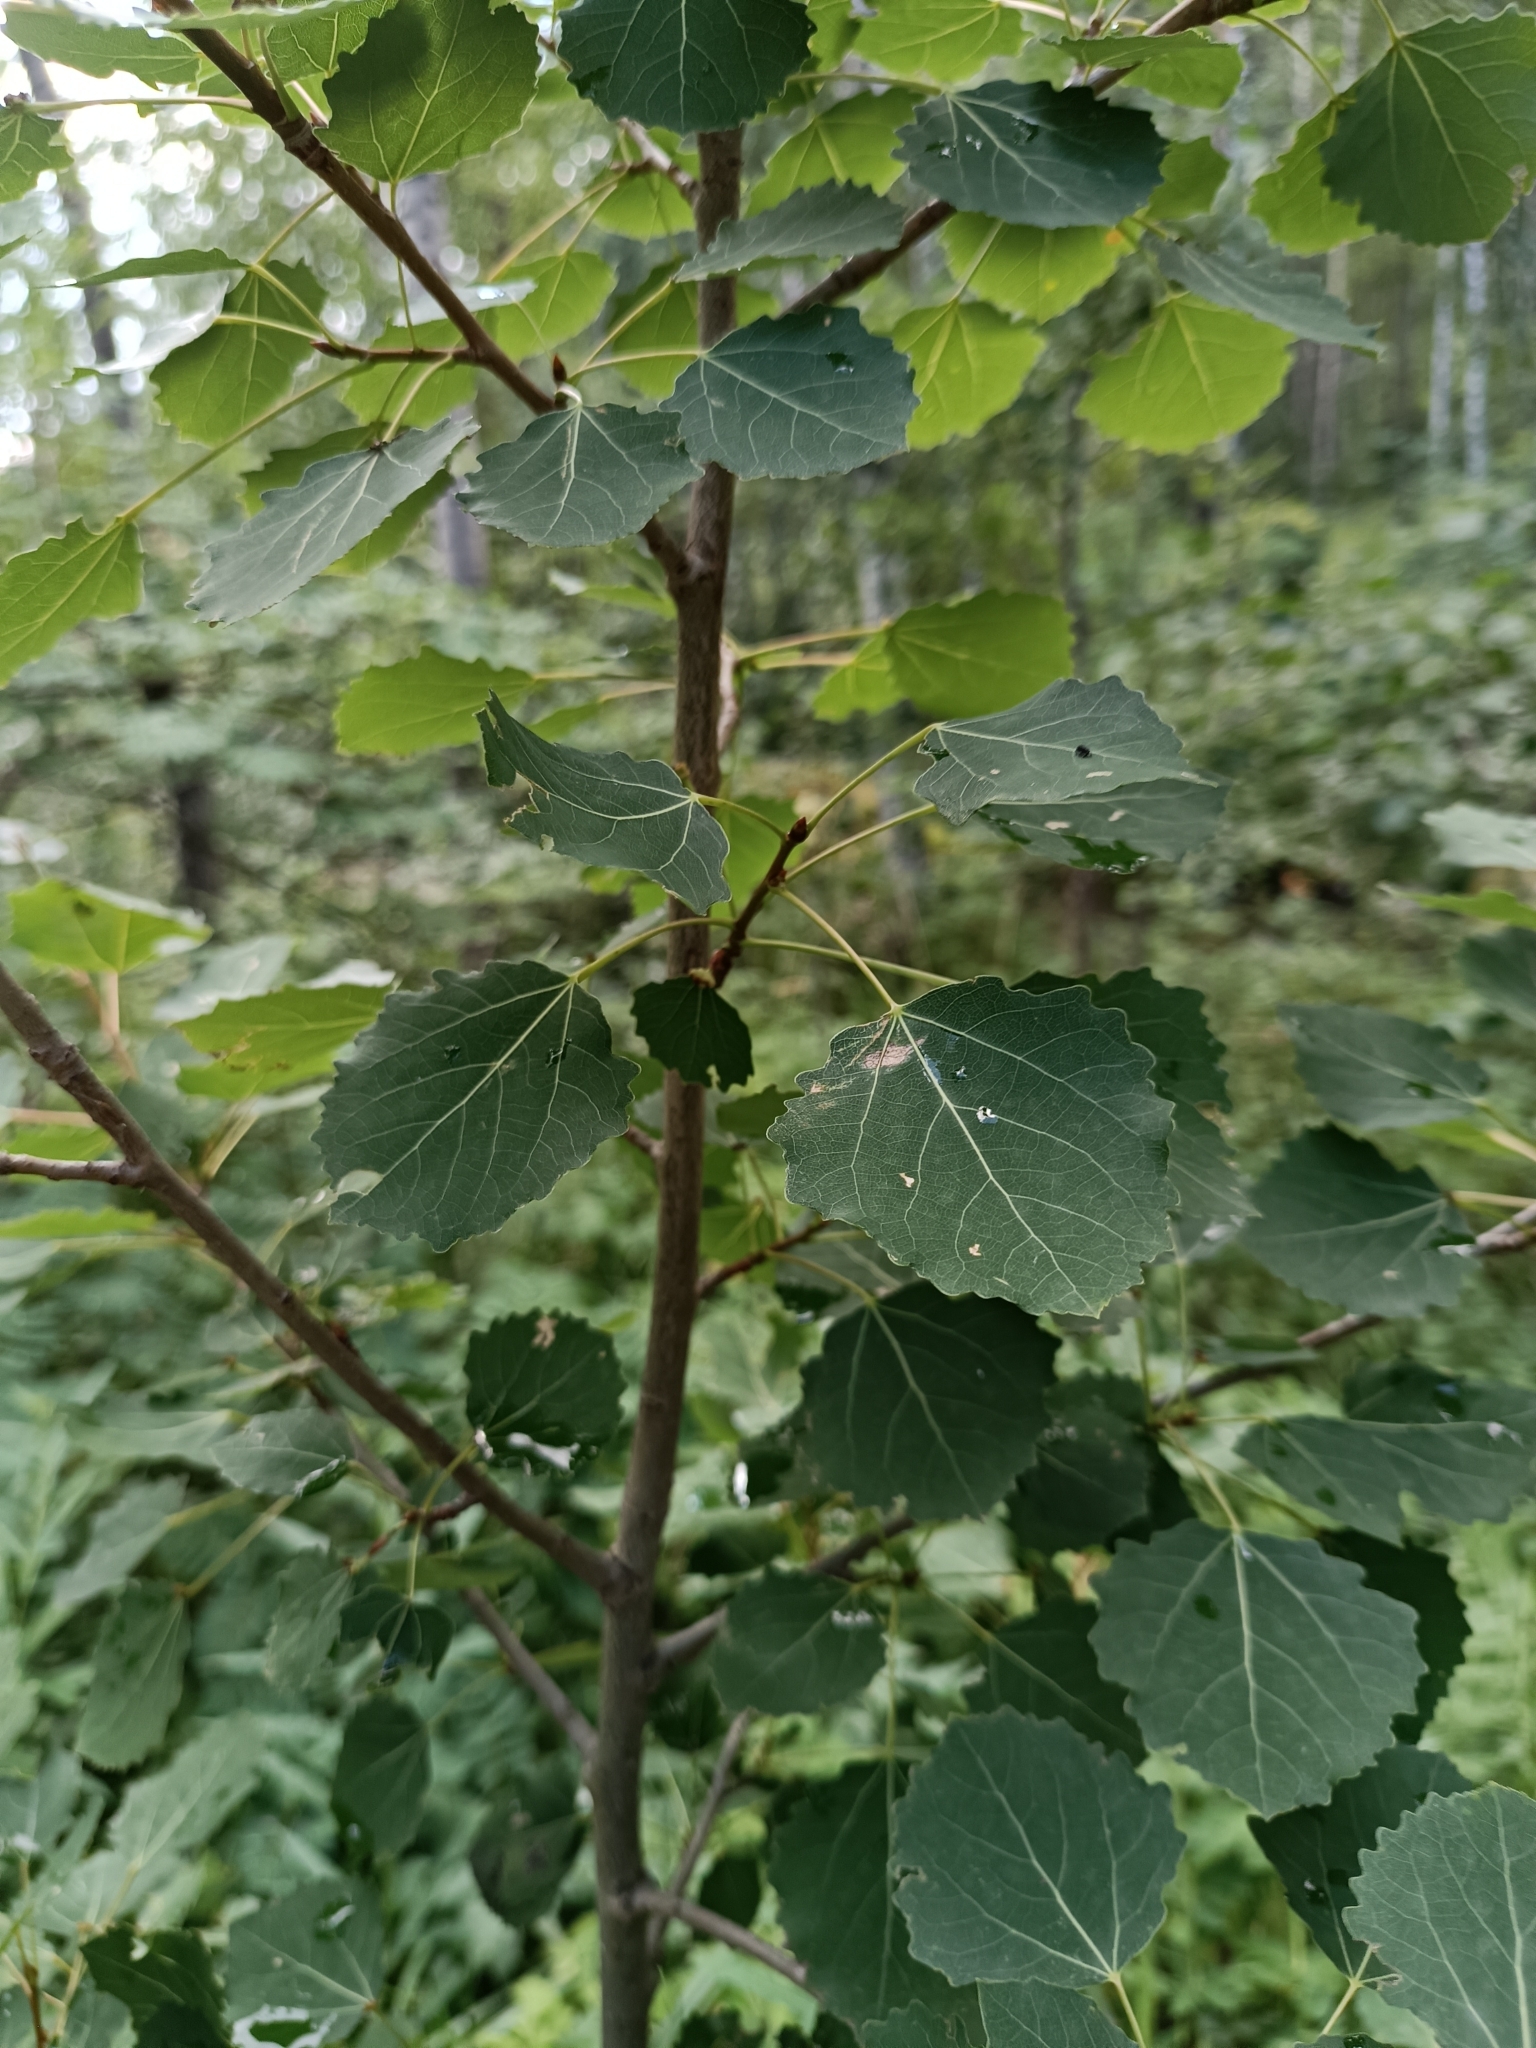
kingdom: Plantae
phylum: Tracheophyta
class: Magnoliopsida
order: Malpighiales
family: Salicaceae
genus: Populus
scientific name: Populus tremula
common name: European aspen
